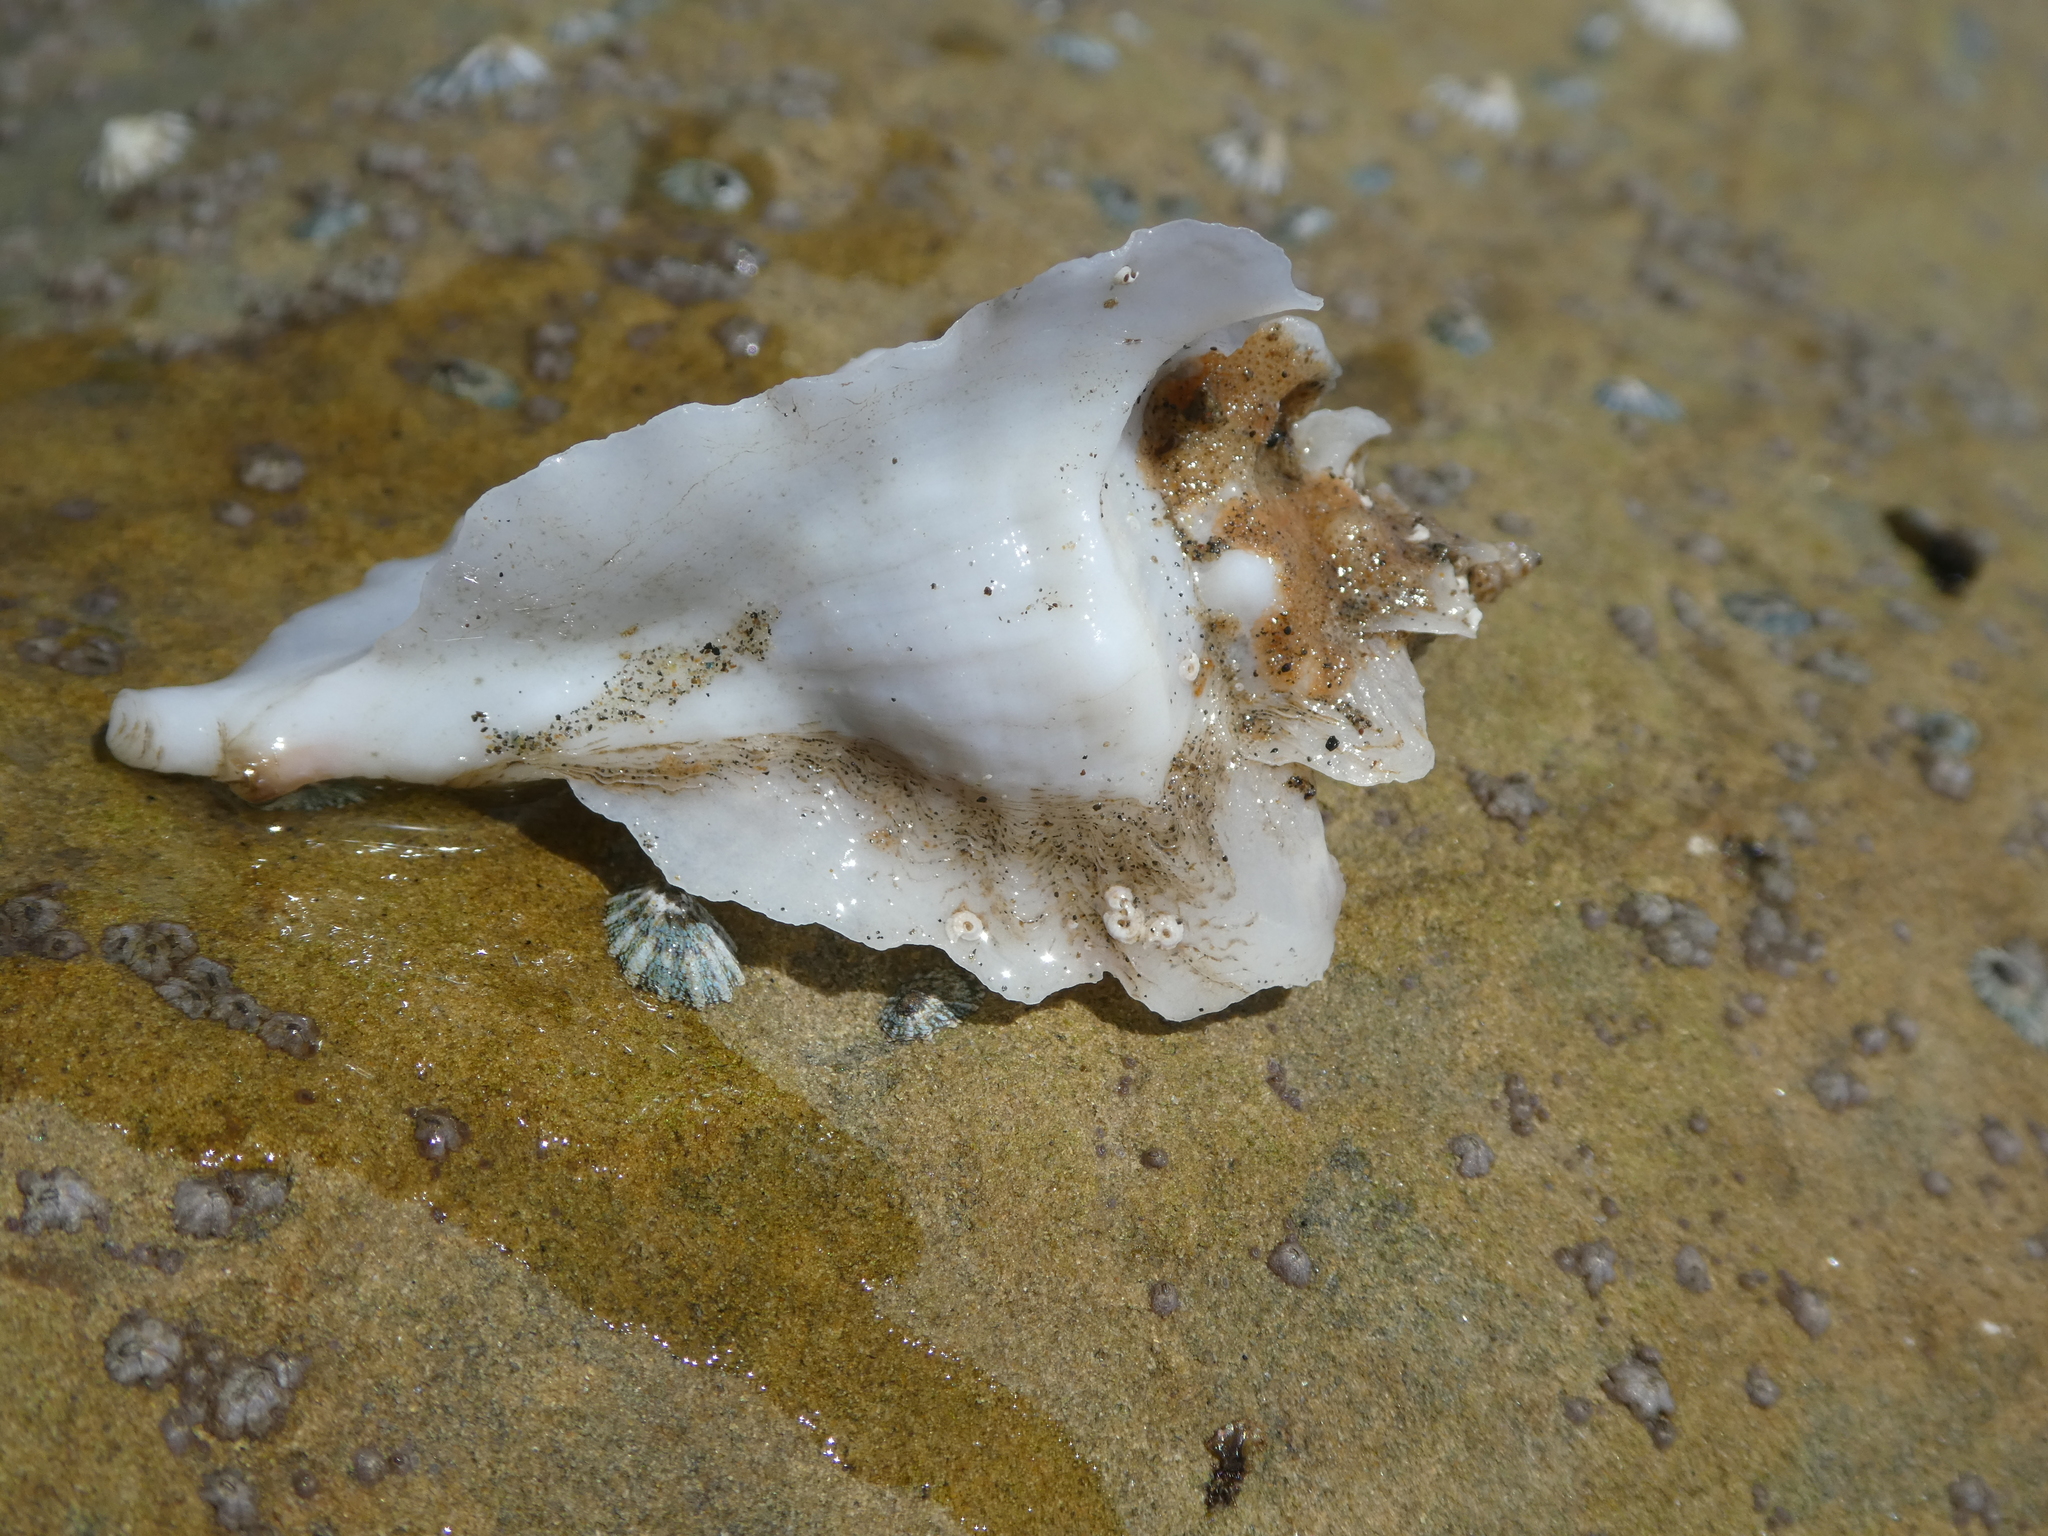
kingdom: Animalia
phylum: Mollusca
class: Gastropoda
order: Neogastropoda
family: Muricidae
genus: Pteropurpura
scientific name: Pteropurpura trialata
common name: Three-winged murex
